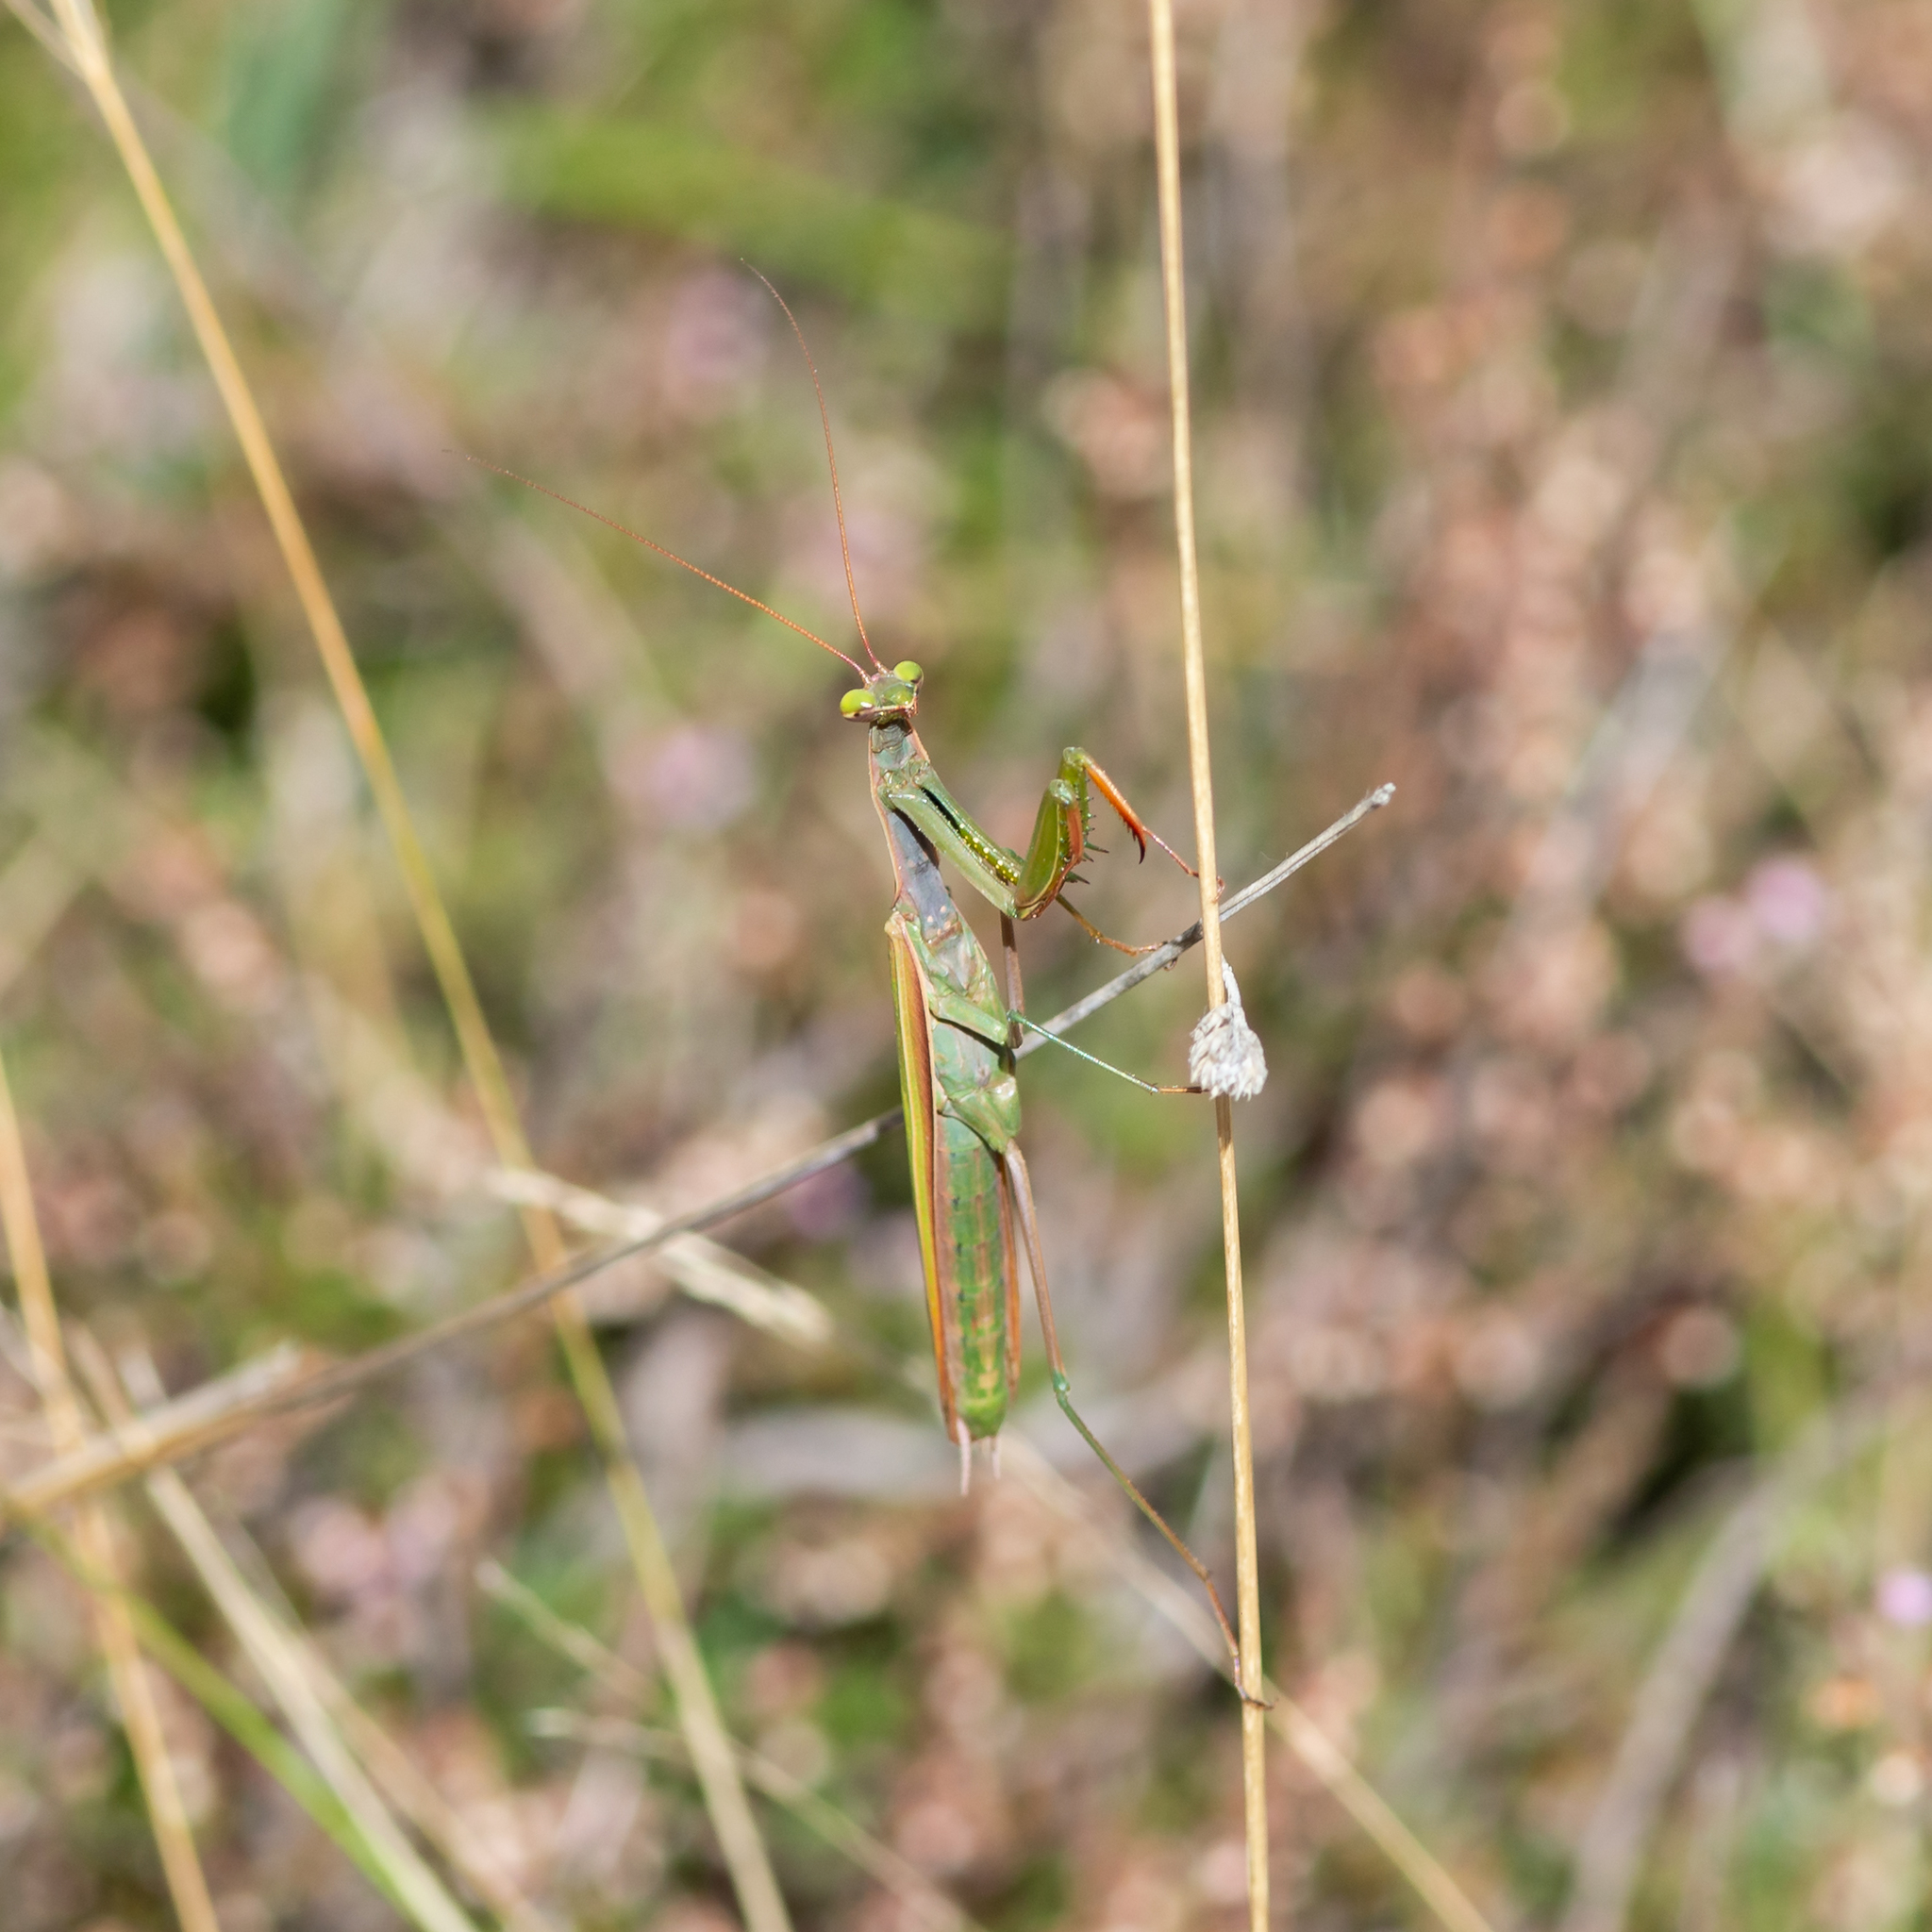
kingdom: Animalia
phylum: Arthropoda
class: Insecta
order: Mantodea
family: Mantidae
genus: Mantis
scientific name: Mantis religiosa
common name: Praying mantis
